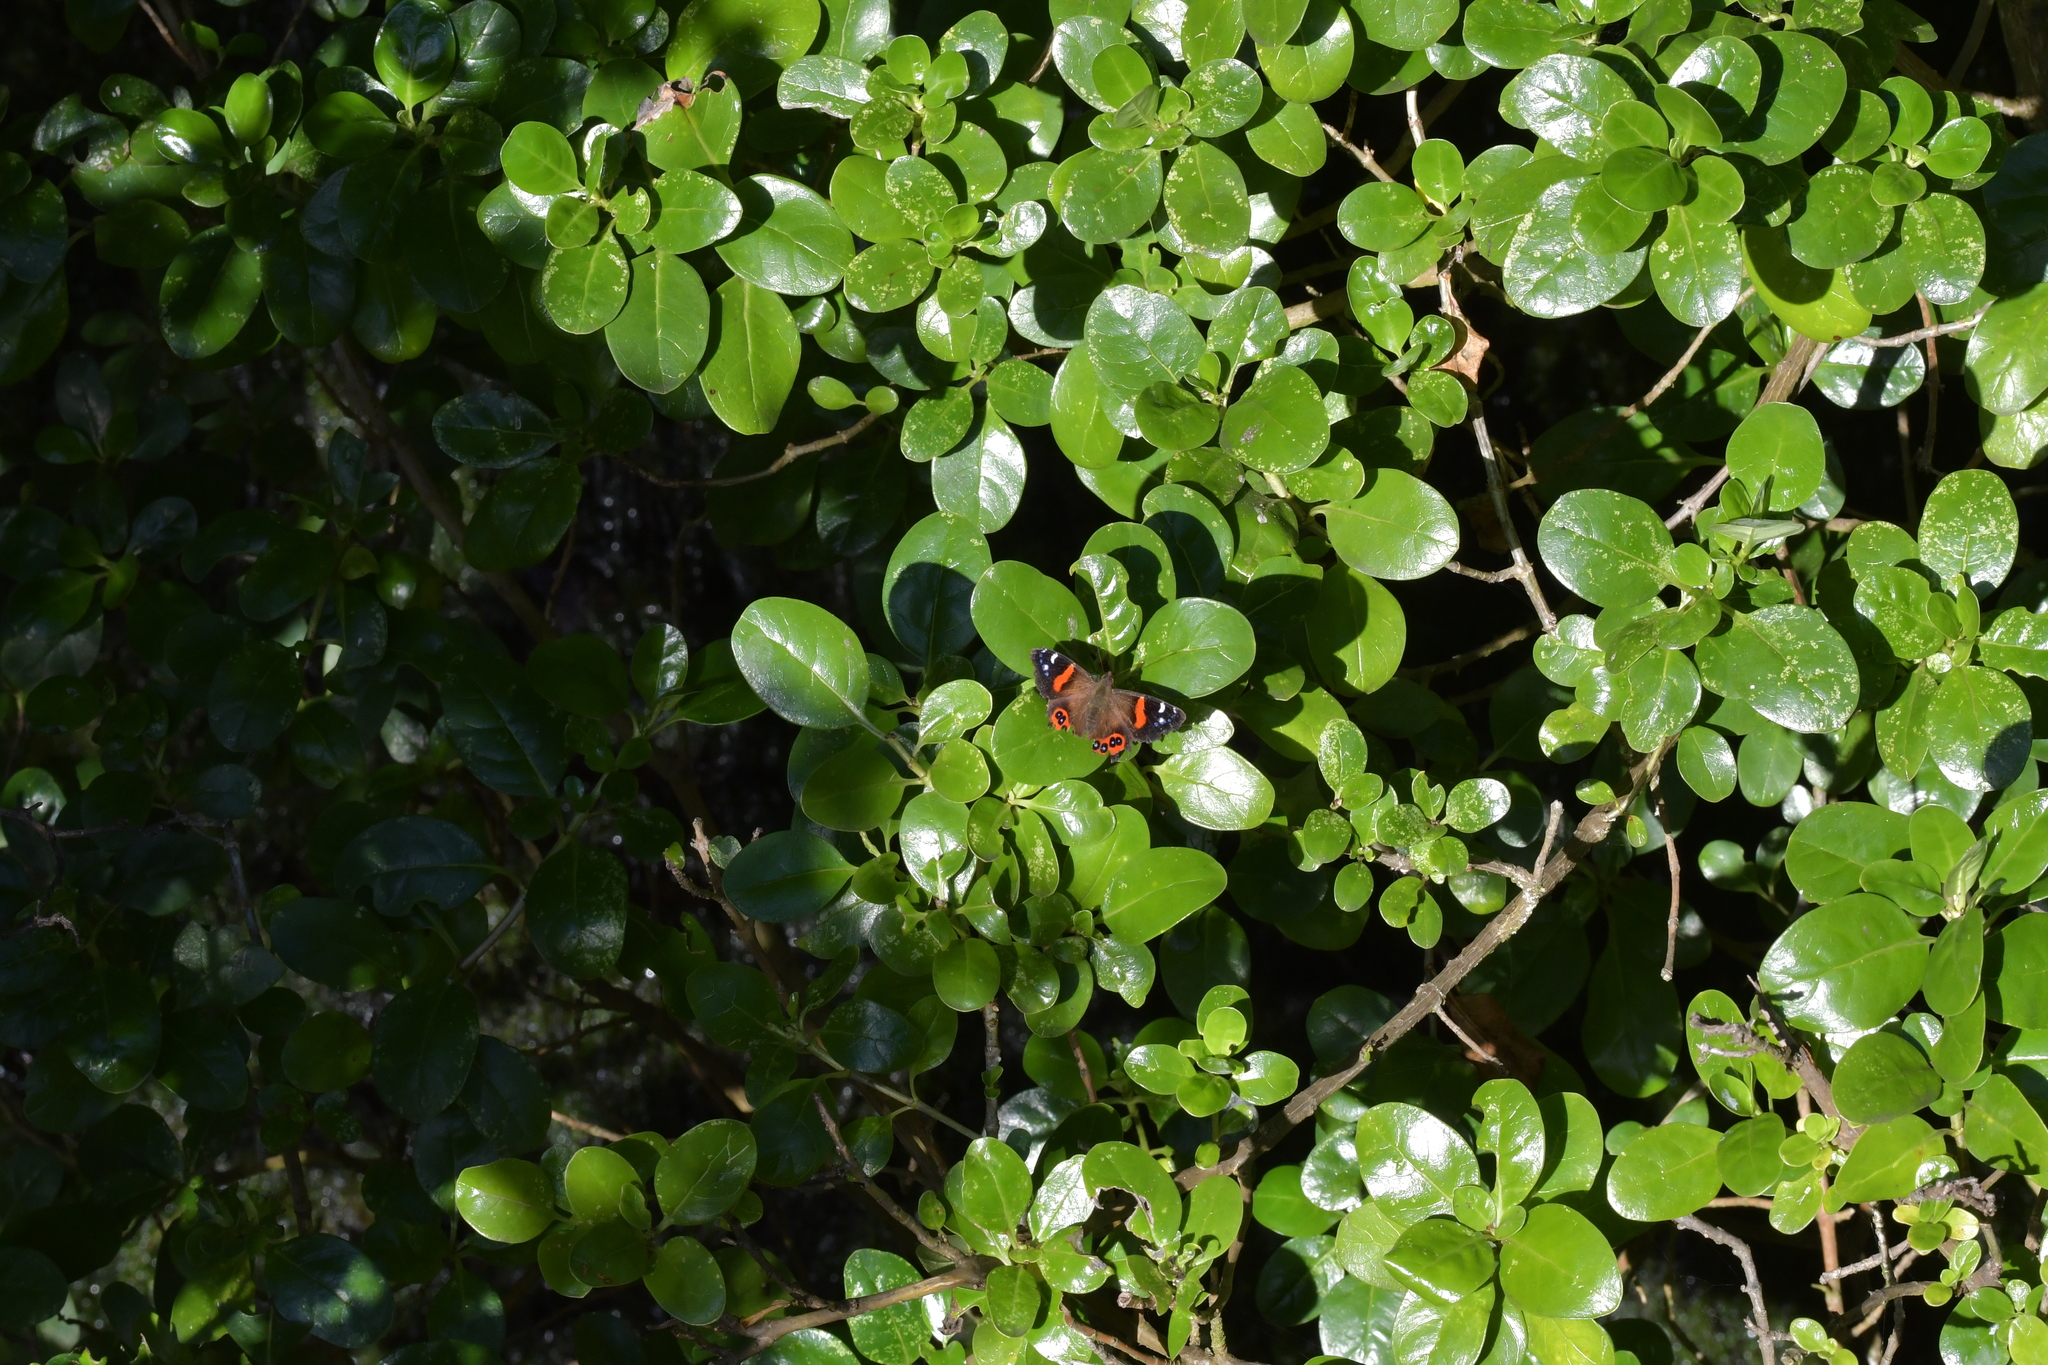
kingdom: Animalia
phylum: Arthropoda
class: Insecta
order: Lepidoptera
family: Nymphalidae
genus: Vanessa
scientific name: Vanessa gonerilla
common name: New zealand red admiral
